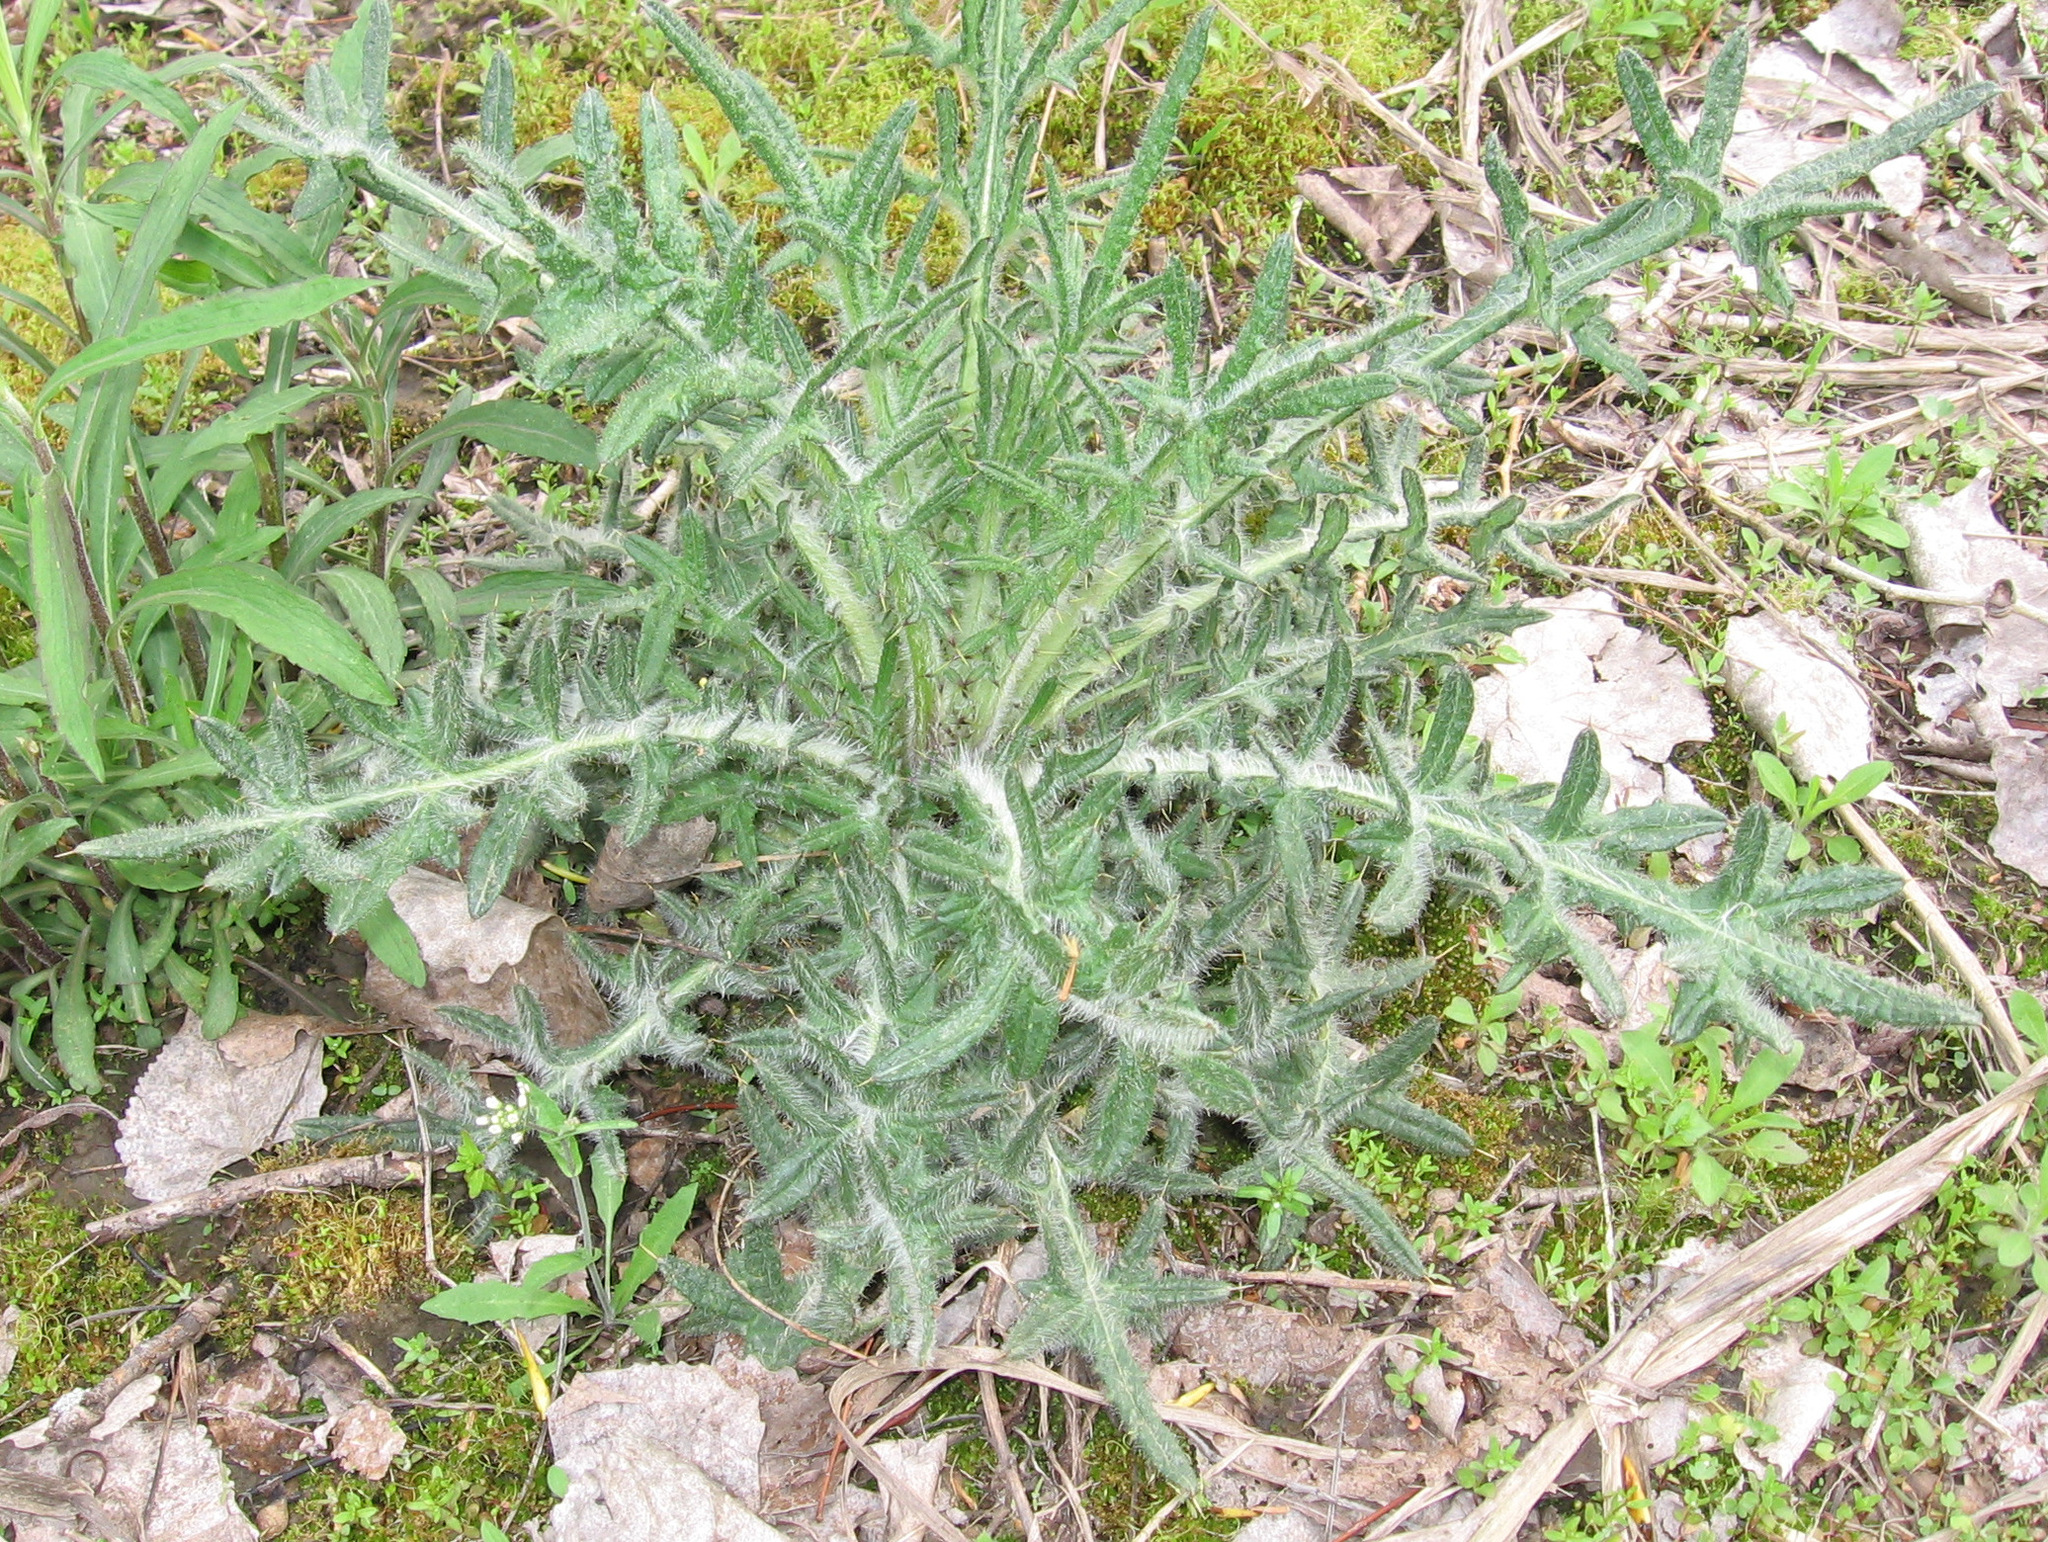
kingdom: Plantae
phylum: Tracheophyta
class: Magnoliopsida
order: Asterales
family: Asteraceae
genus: Cirsium
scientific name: Cirsium vulgare
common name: Bull thistle
